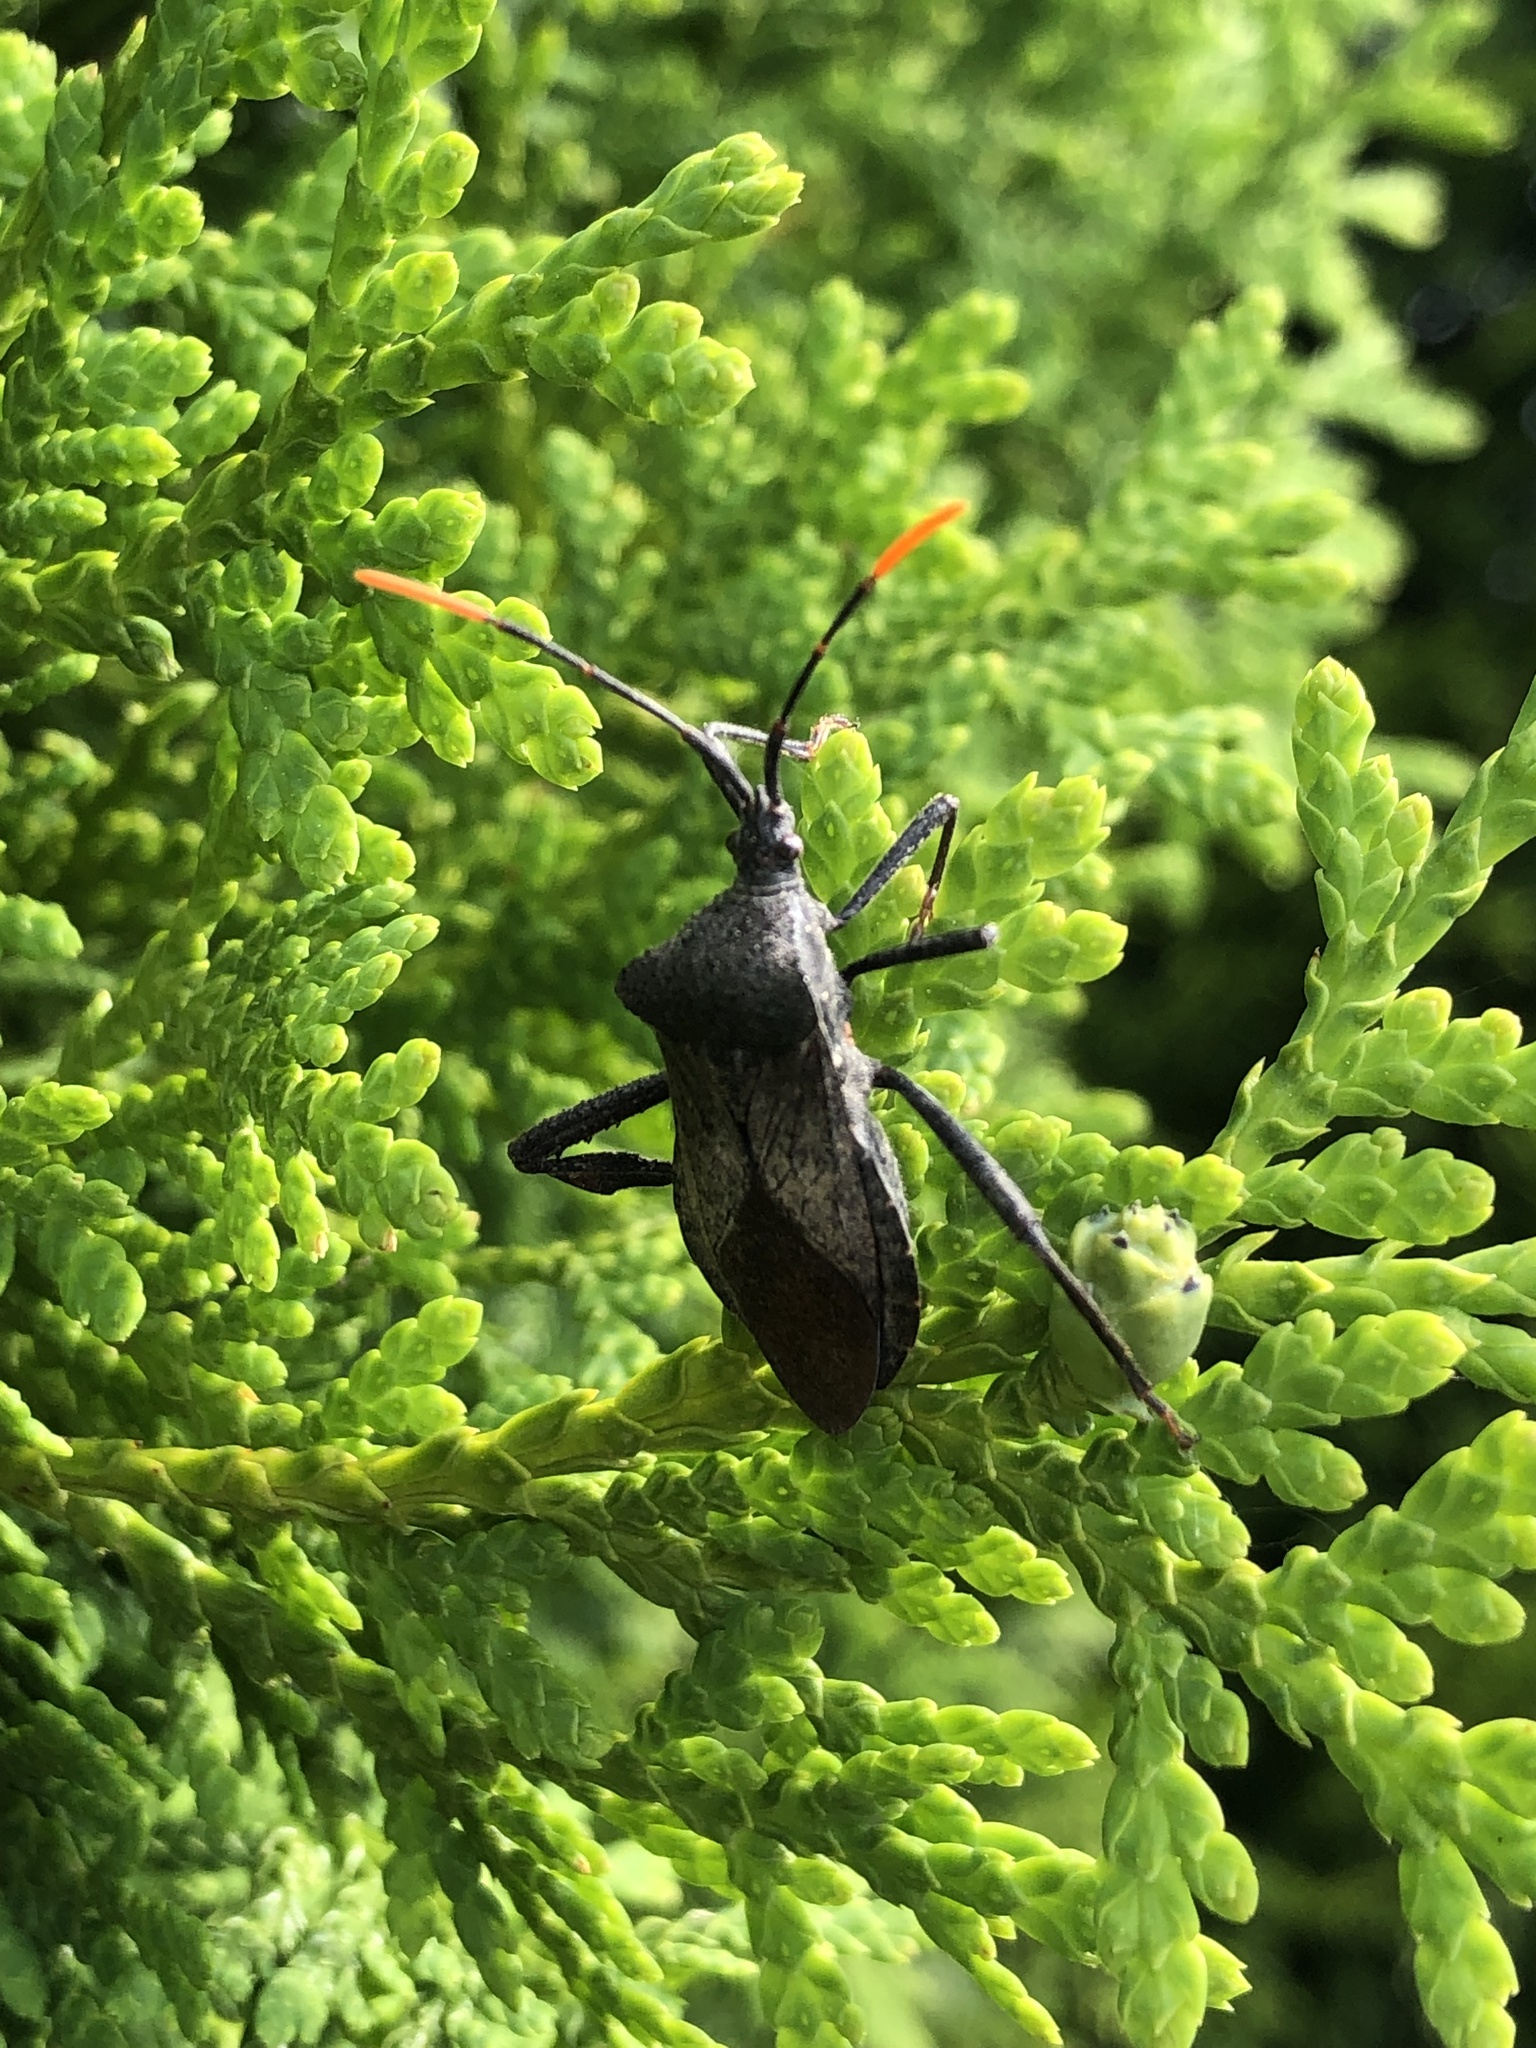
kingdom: Animalia
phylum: Arthropoda
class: Insecta
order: Hemiptera
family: Coreidae
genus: Acanthocephala
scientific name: Acanthocephala terminalis
